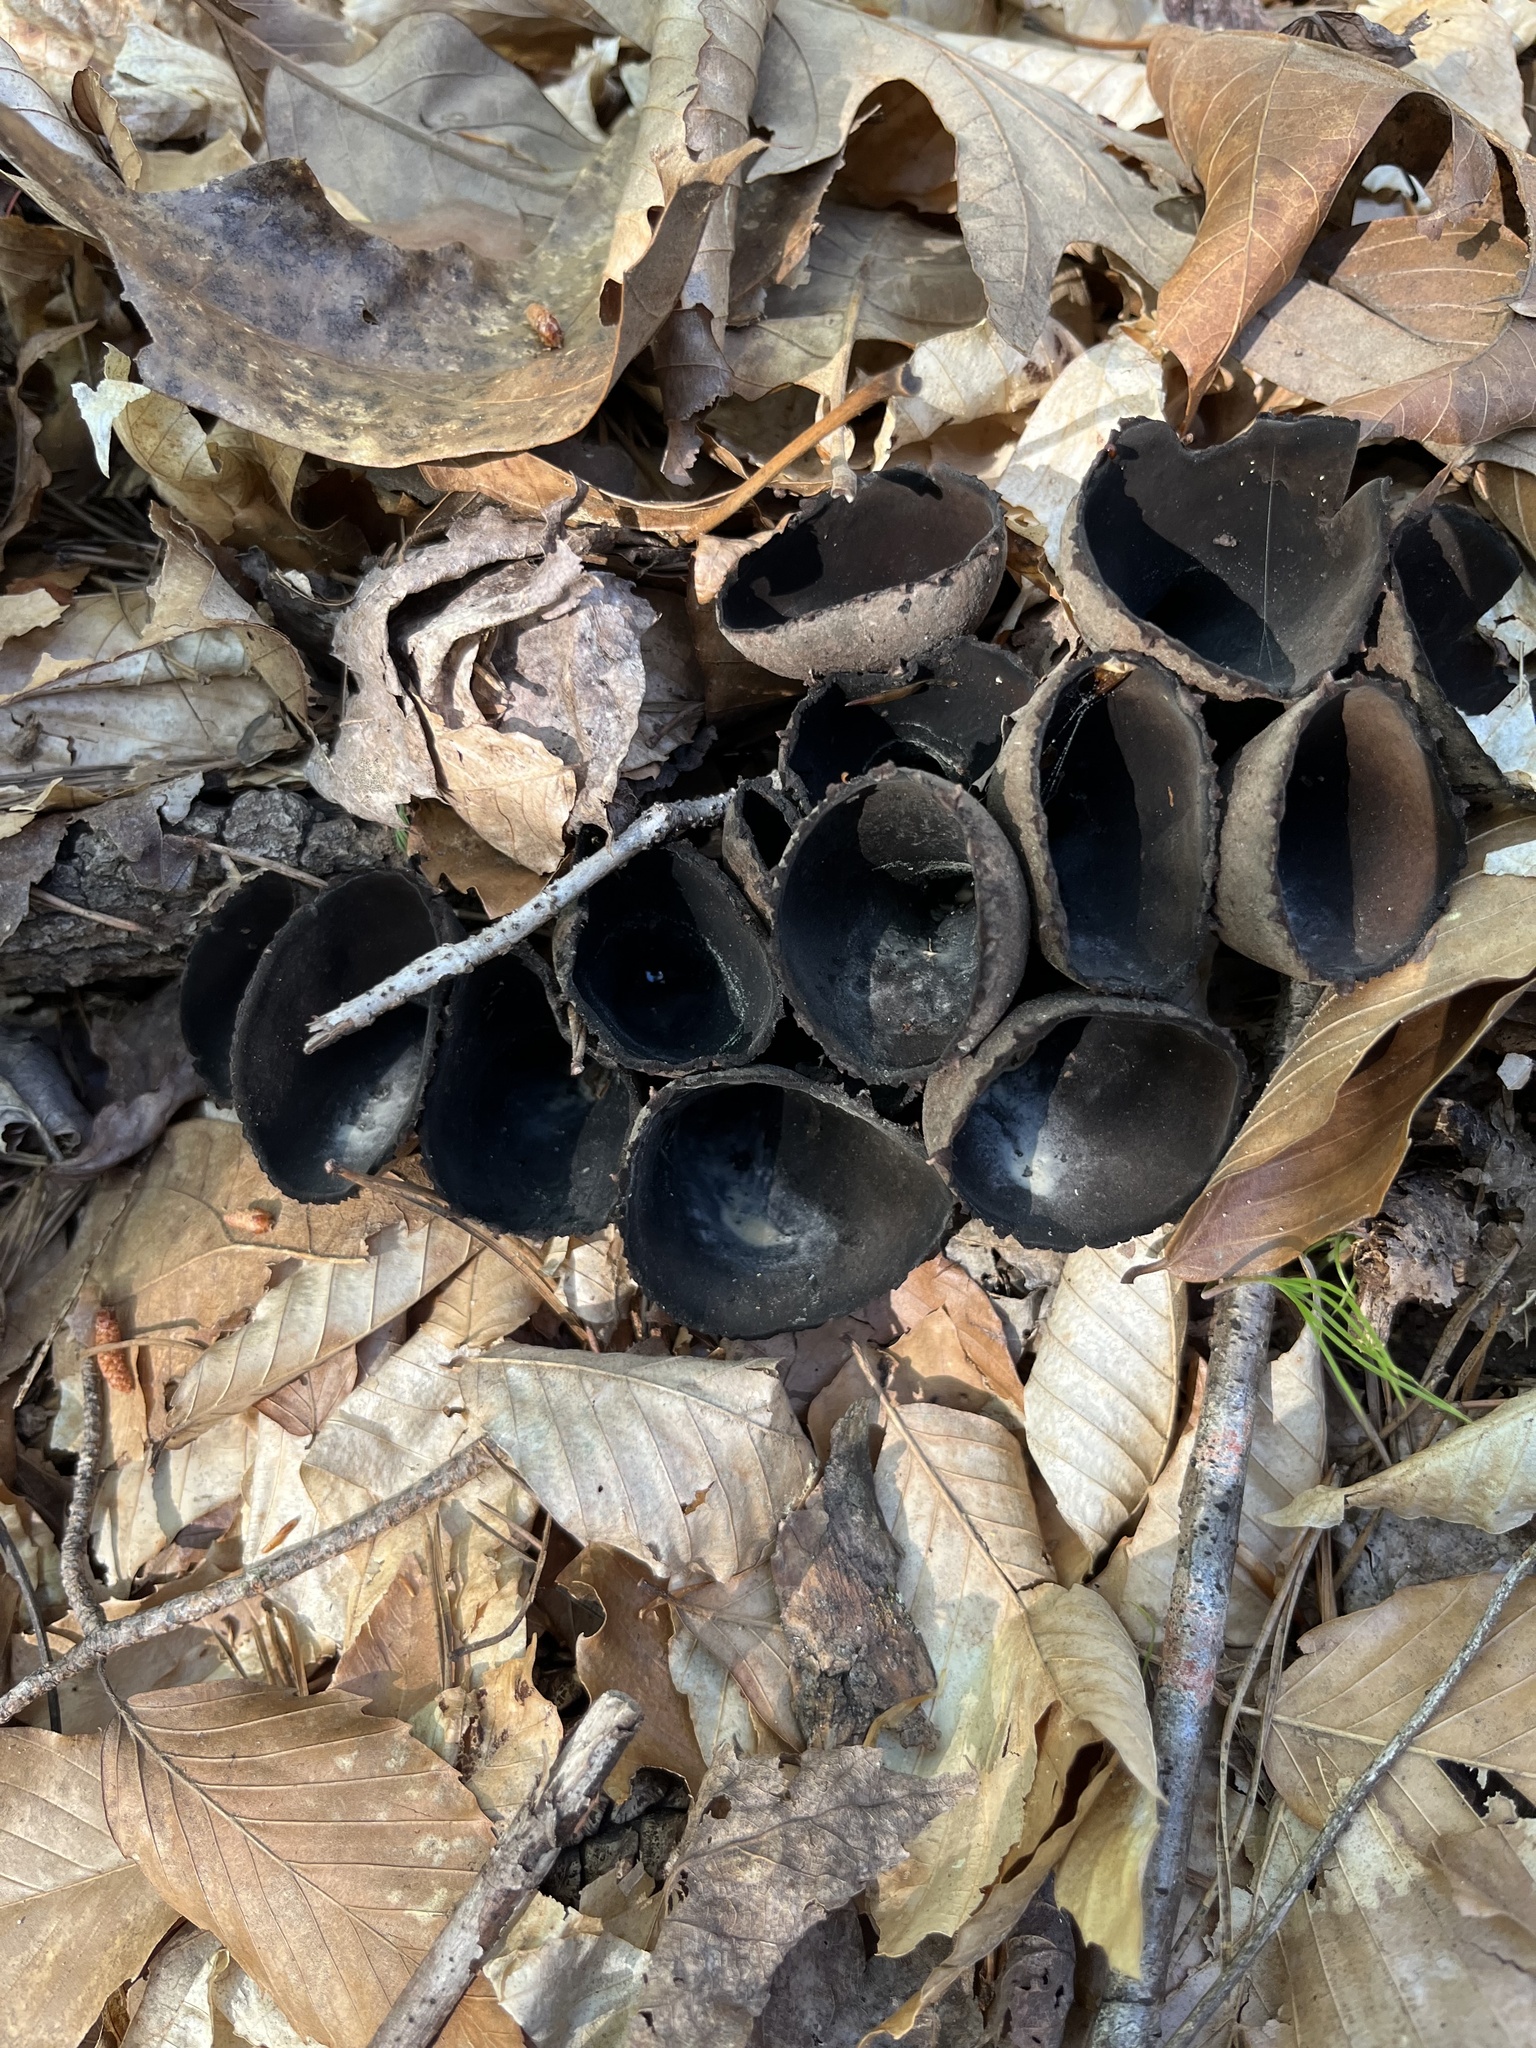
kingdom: Fungi
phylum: Ascomycota
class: Pezizomycetes
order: Pezizales
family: Sarcosomataceae
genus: Urnula
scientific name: Urnula craterium
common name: Devil's urn
